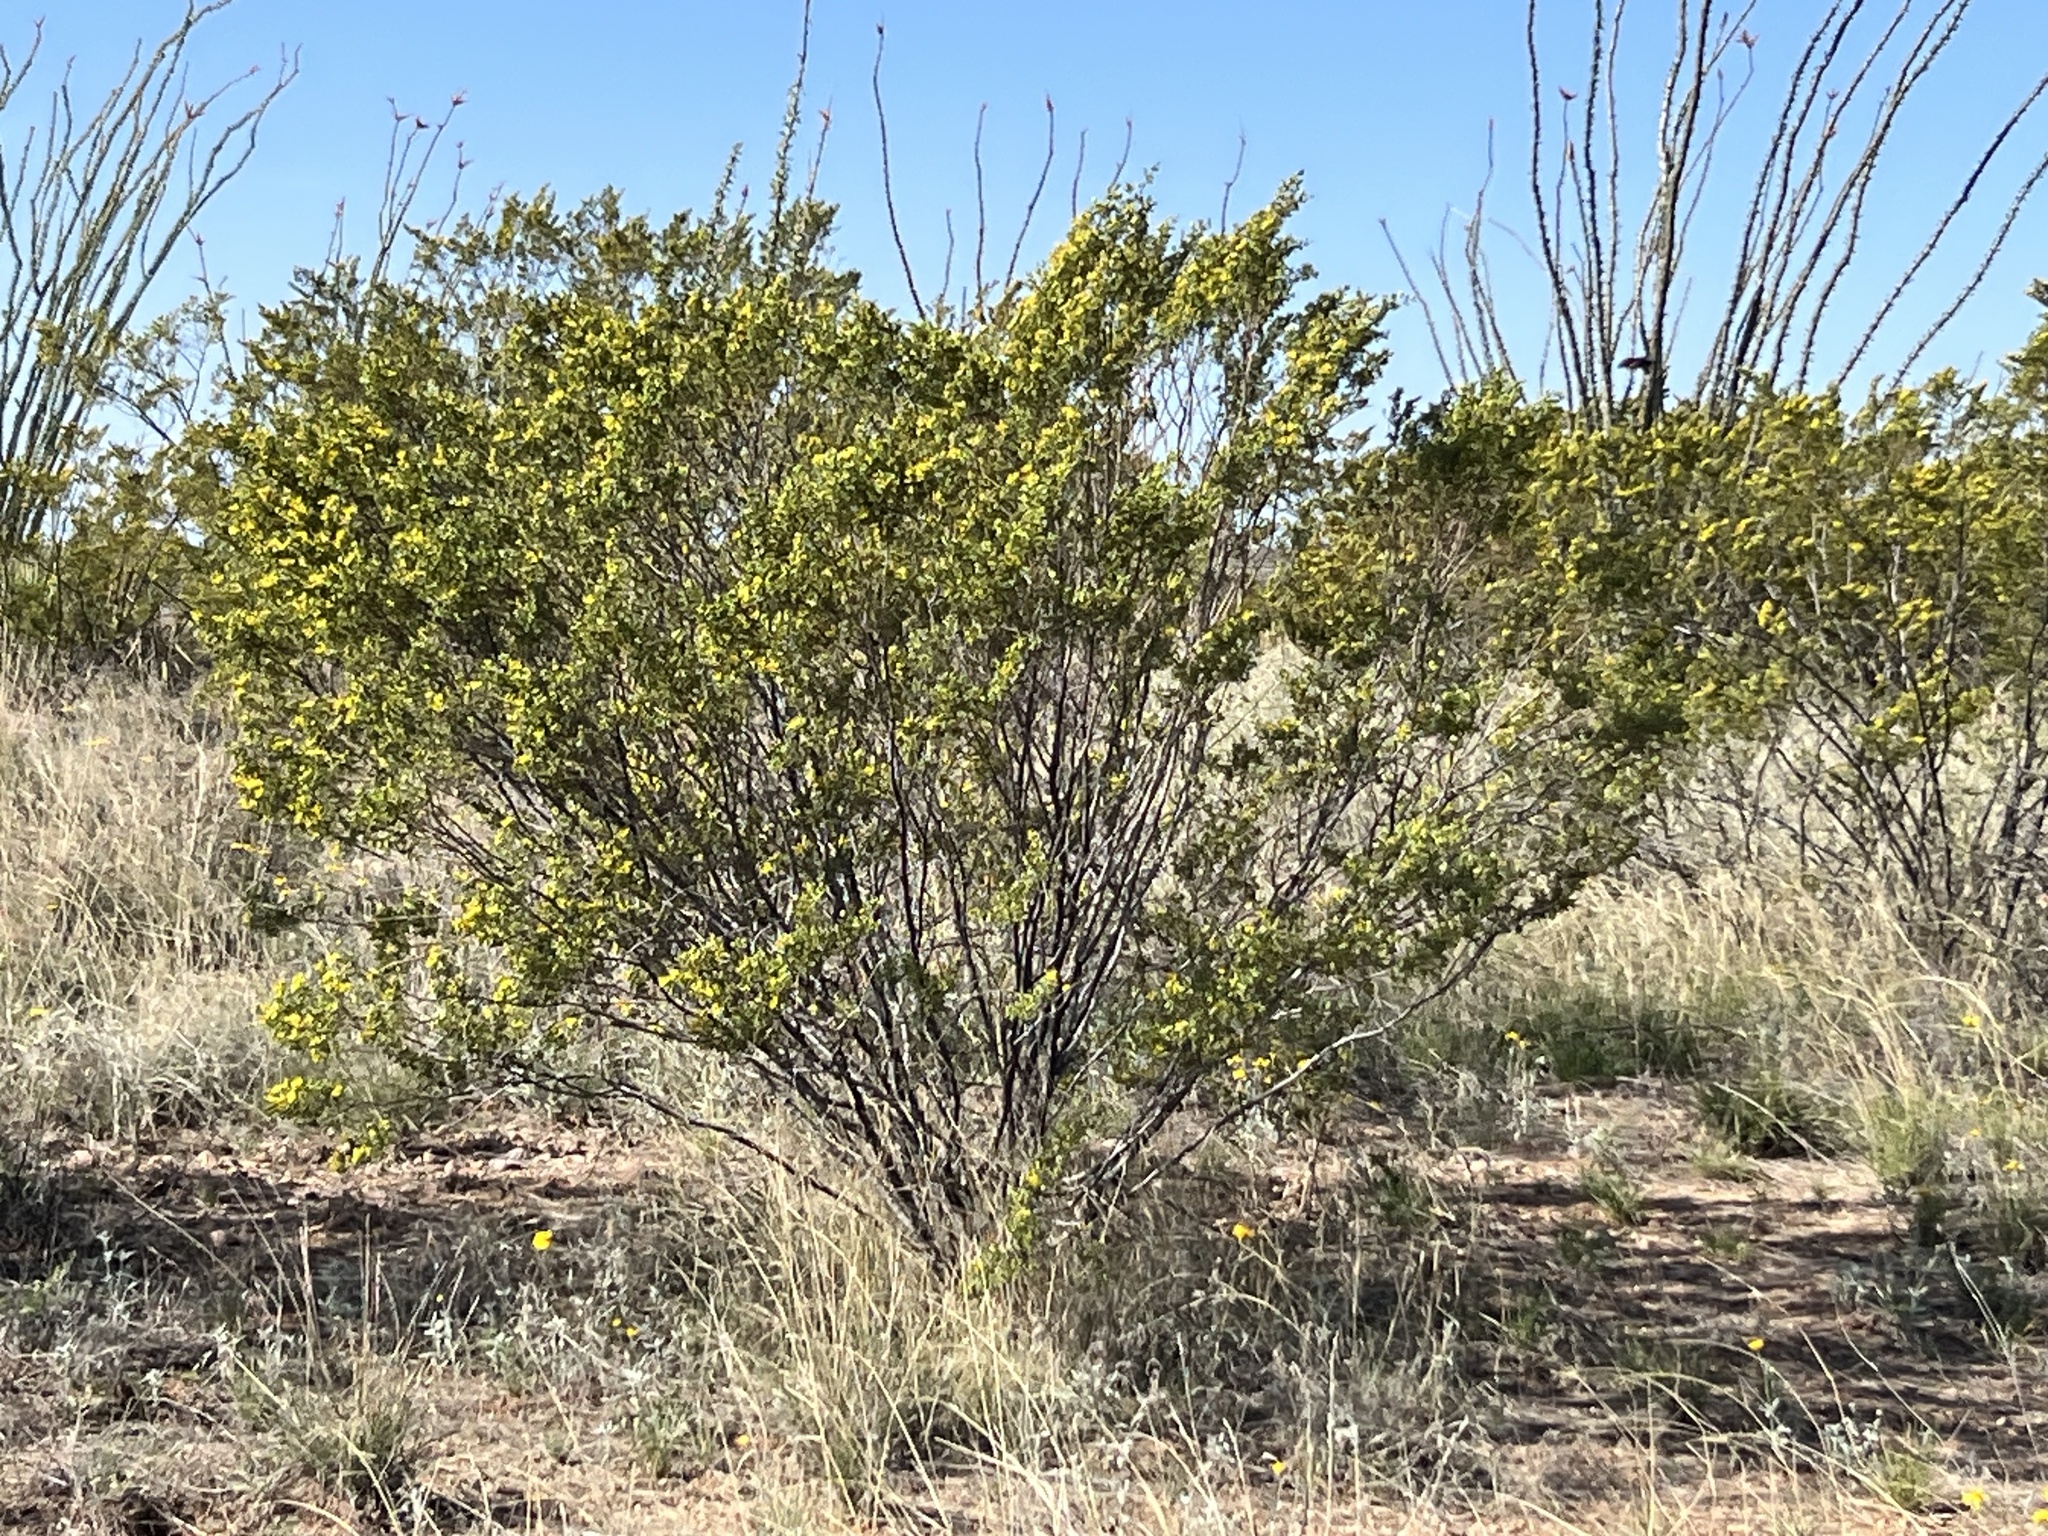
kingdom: Plantae
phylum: Tracheophyta
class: Magnoliopsida
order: Zygophyllales
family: Zygophyllaceae
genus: Larrea
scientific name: Larrea tridentata
